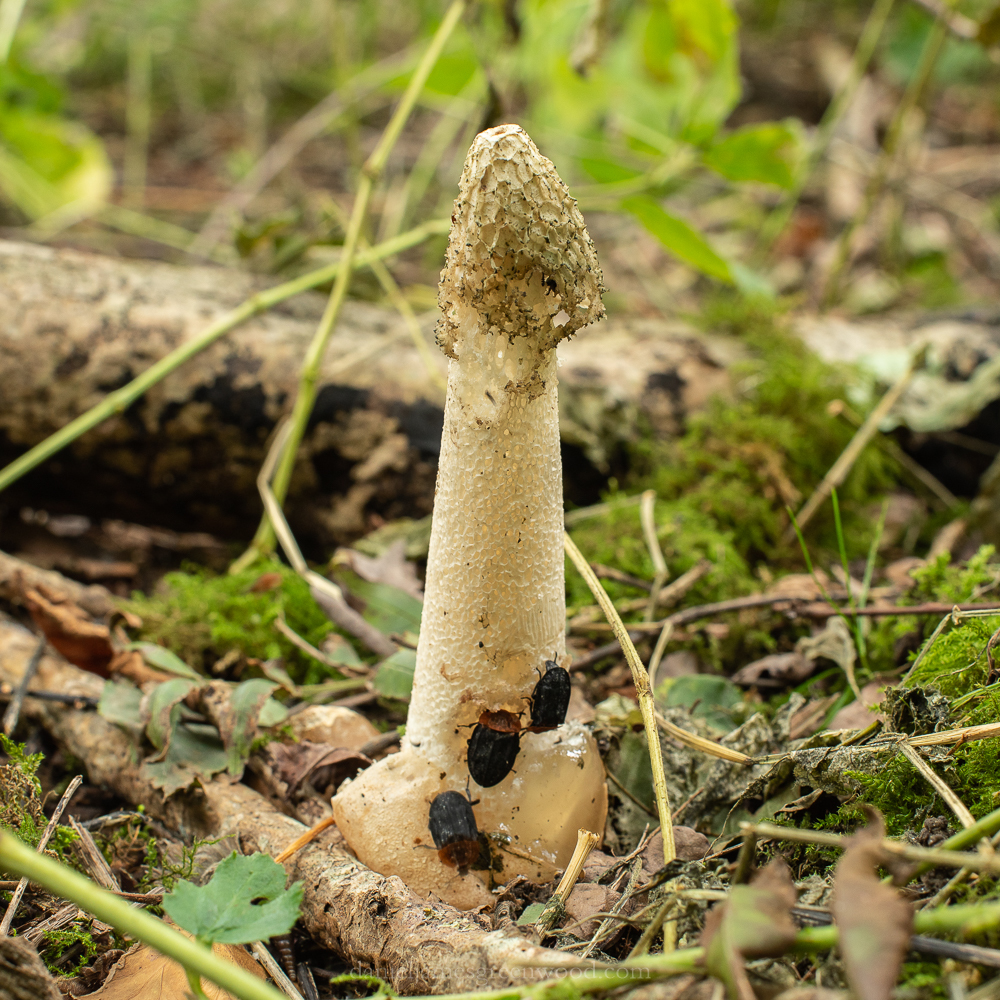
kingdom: Fungi
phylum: Basidiomycota
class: Agaricomycetes
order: Phallales
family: Phallaceae
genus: Phallus
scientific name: Phallus impudicus
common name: Common stinkhorn
